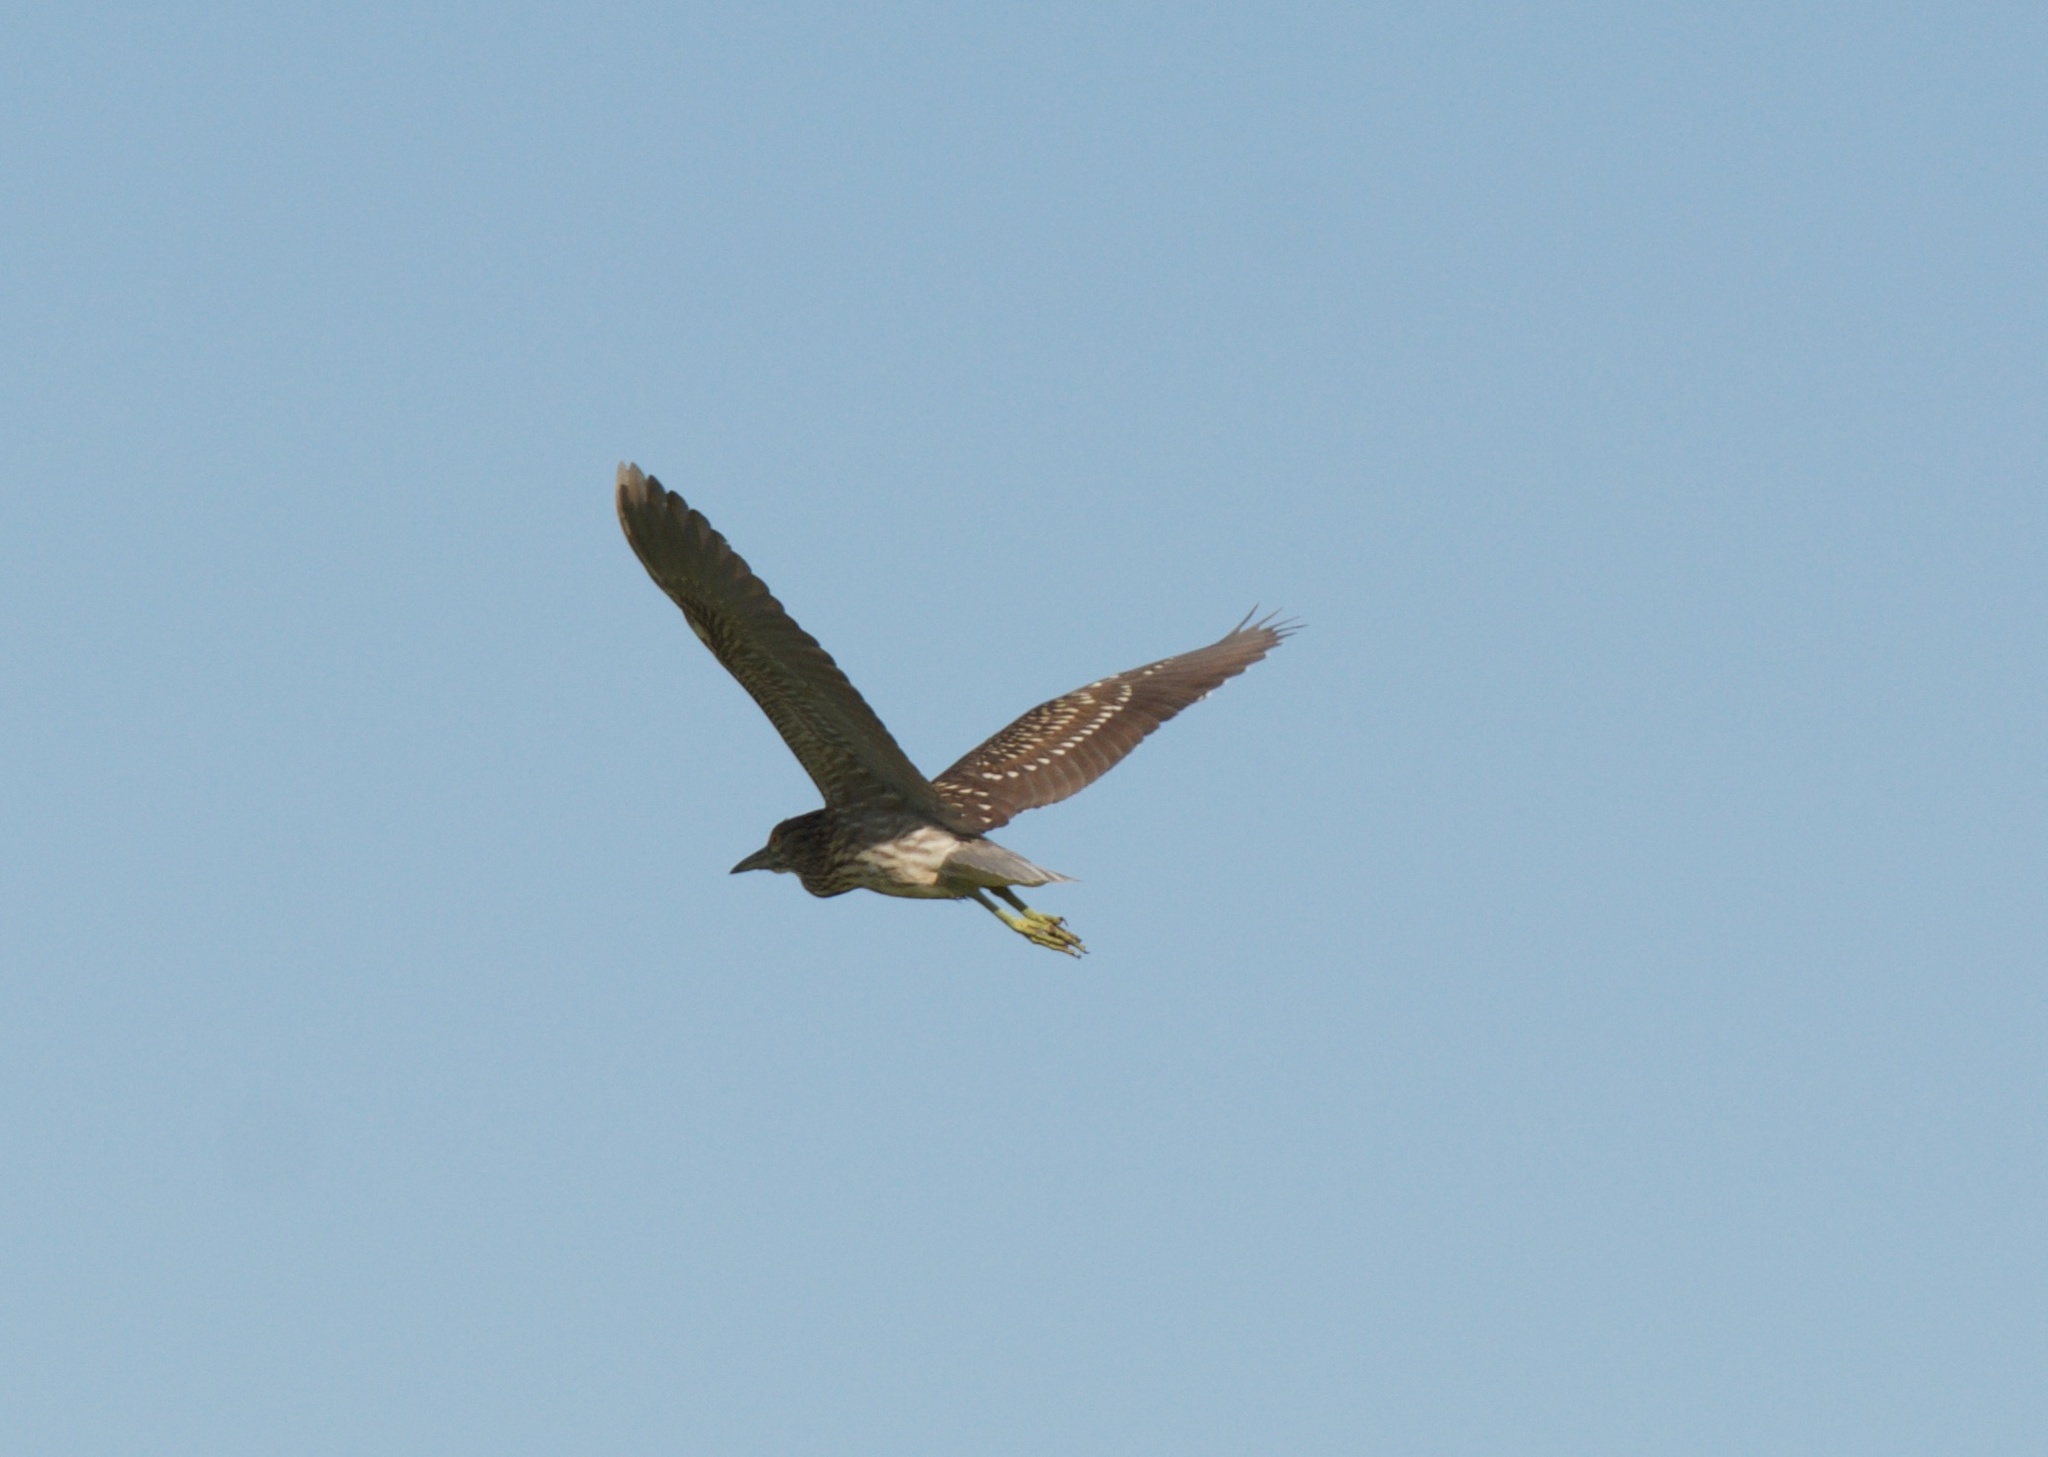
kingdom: Animalia
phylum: Chordata
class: Aves
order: Pelecaniformes
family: Ardeidae
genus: Nycticorax
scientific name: Nycticorax nycticorax
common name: Black-crowned night heron
